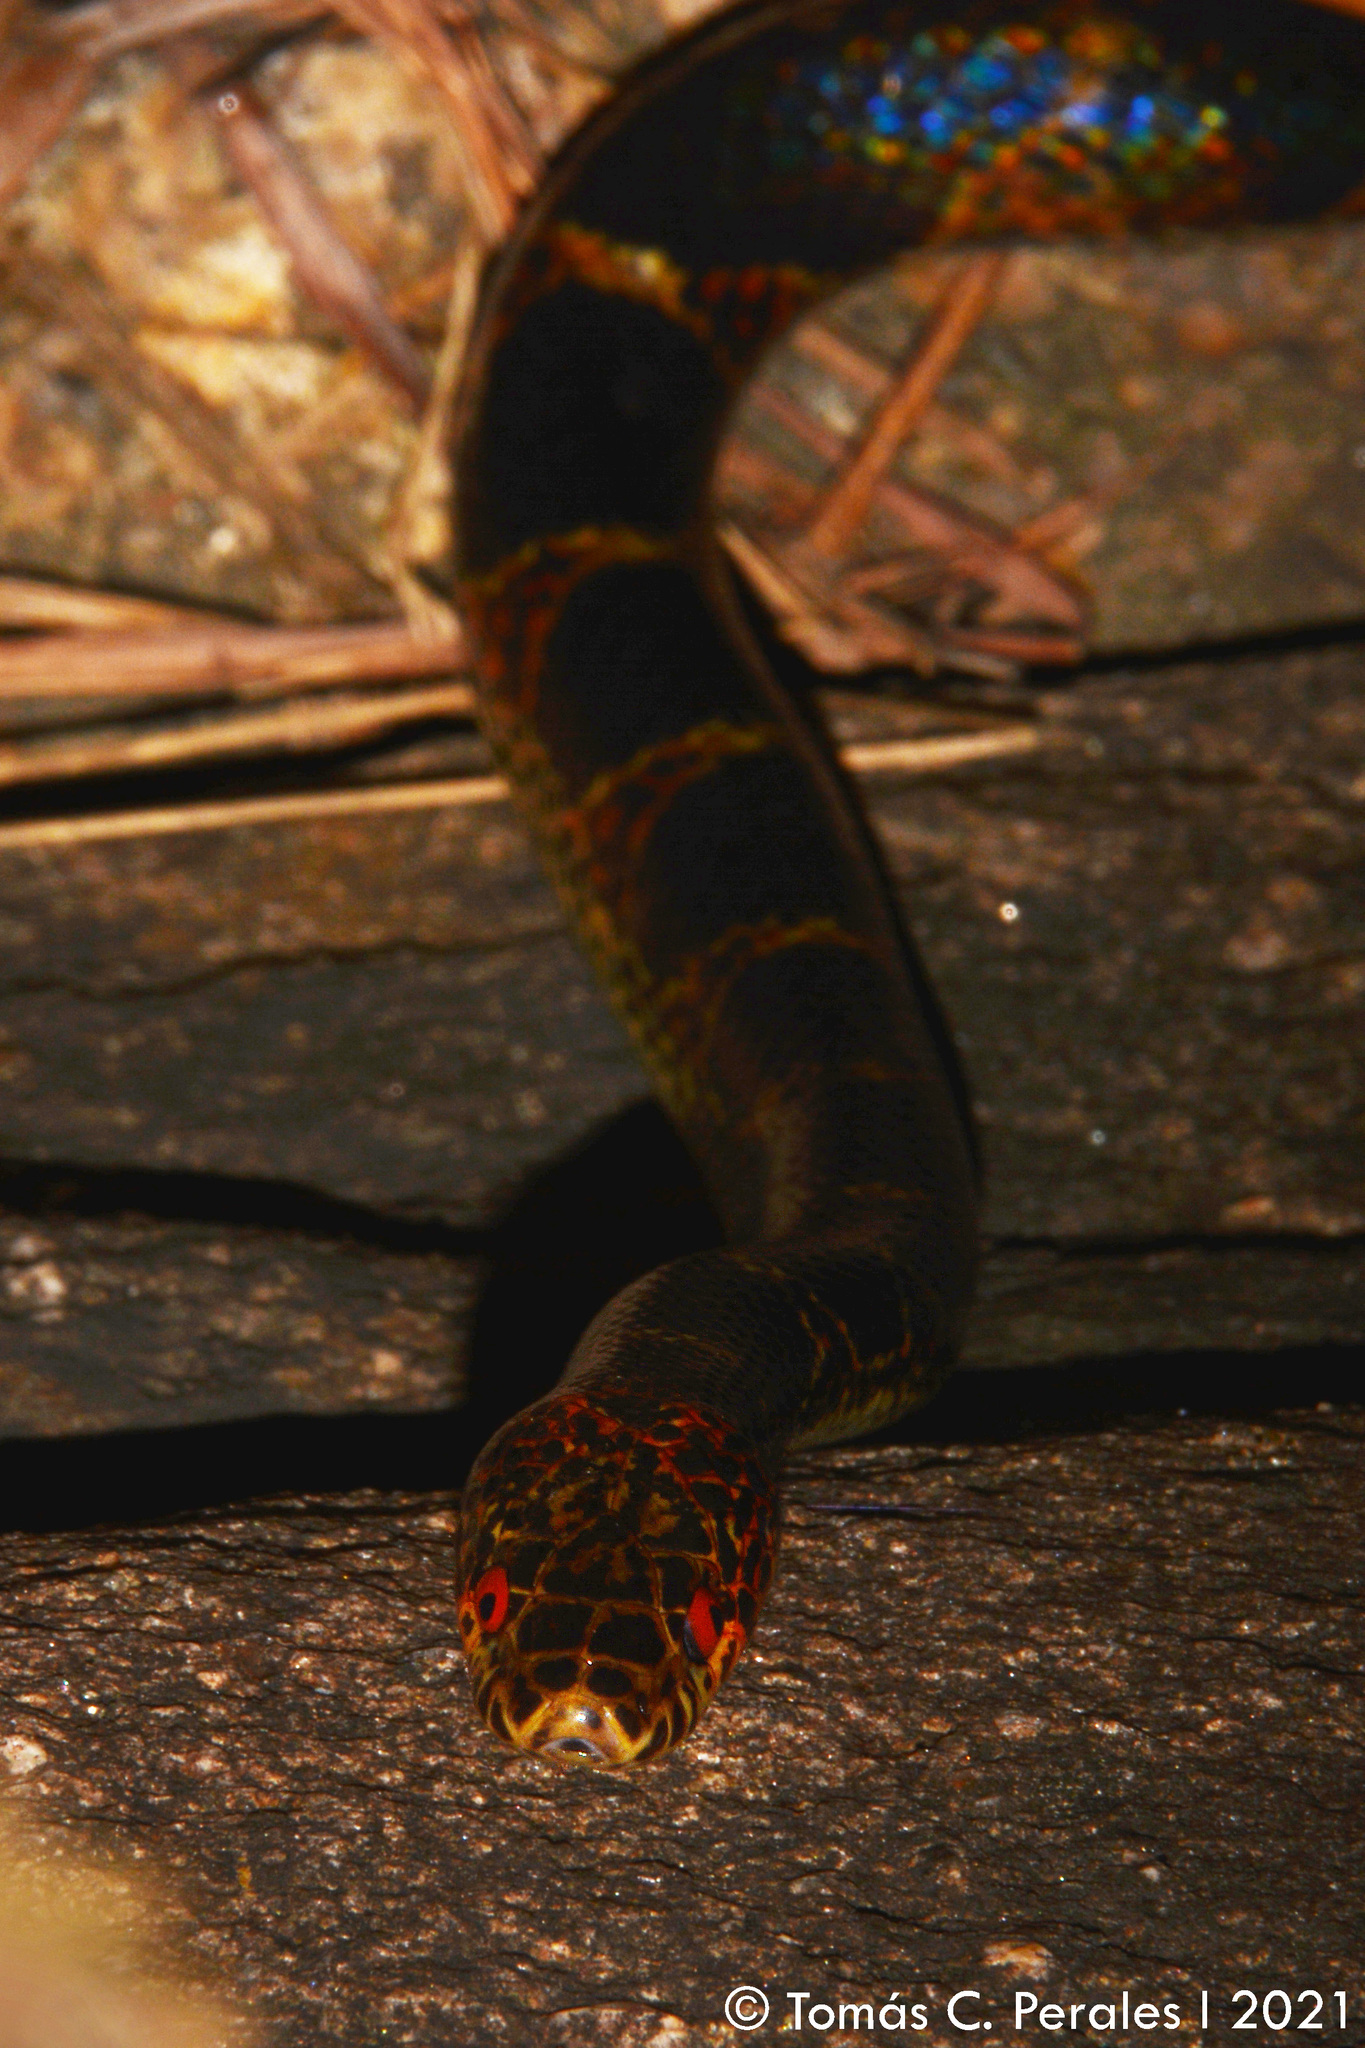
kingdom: Animalia
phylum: Chordata
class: Squamata
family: Colubridae
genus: Oxyrhopus
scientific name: Oxyrhopus rhombifer
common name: Amazon false coral snake
